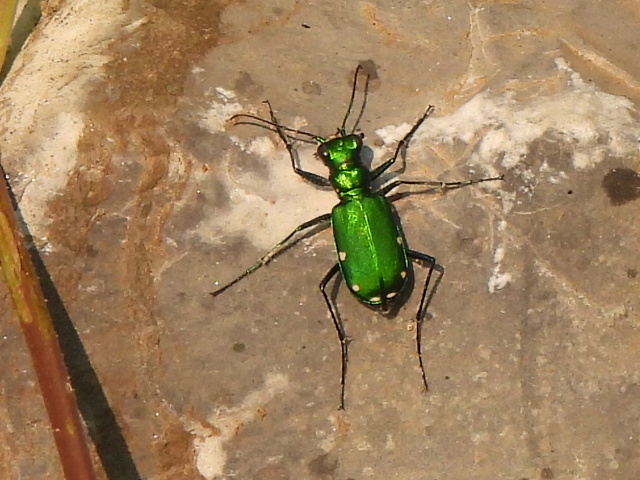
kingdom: Animalia
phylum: Arthropoda
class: Insecta
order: Coleoptera
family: Carabidae
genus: Cicindela
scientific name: Cicindela sexguttata
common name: Six-spotted tiger beetle
